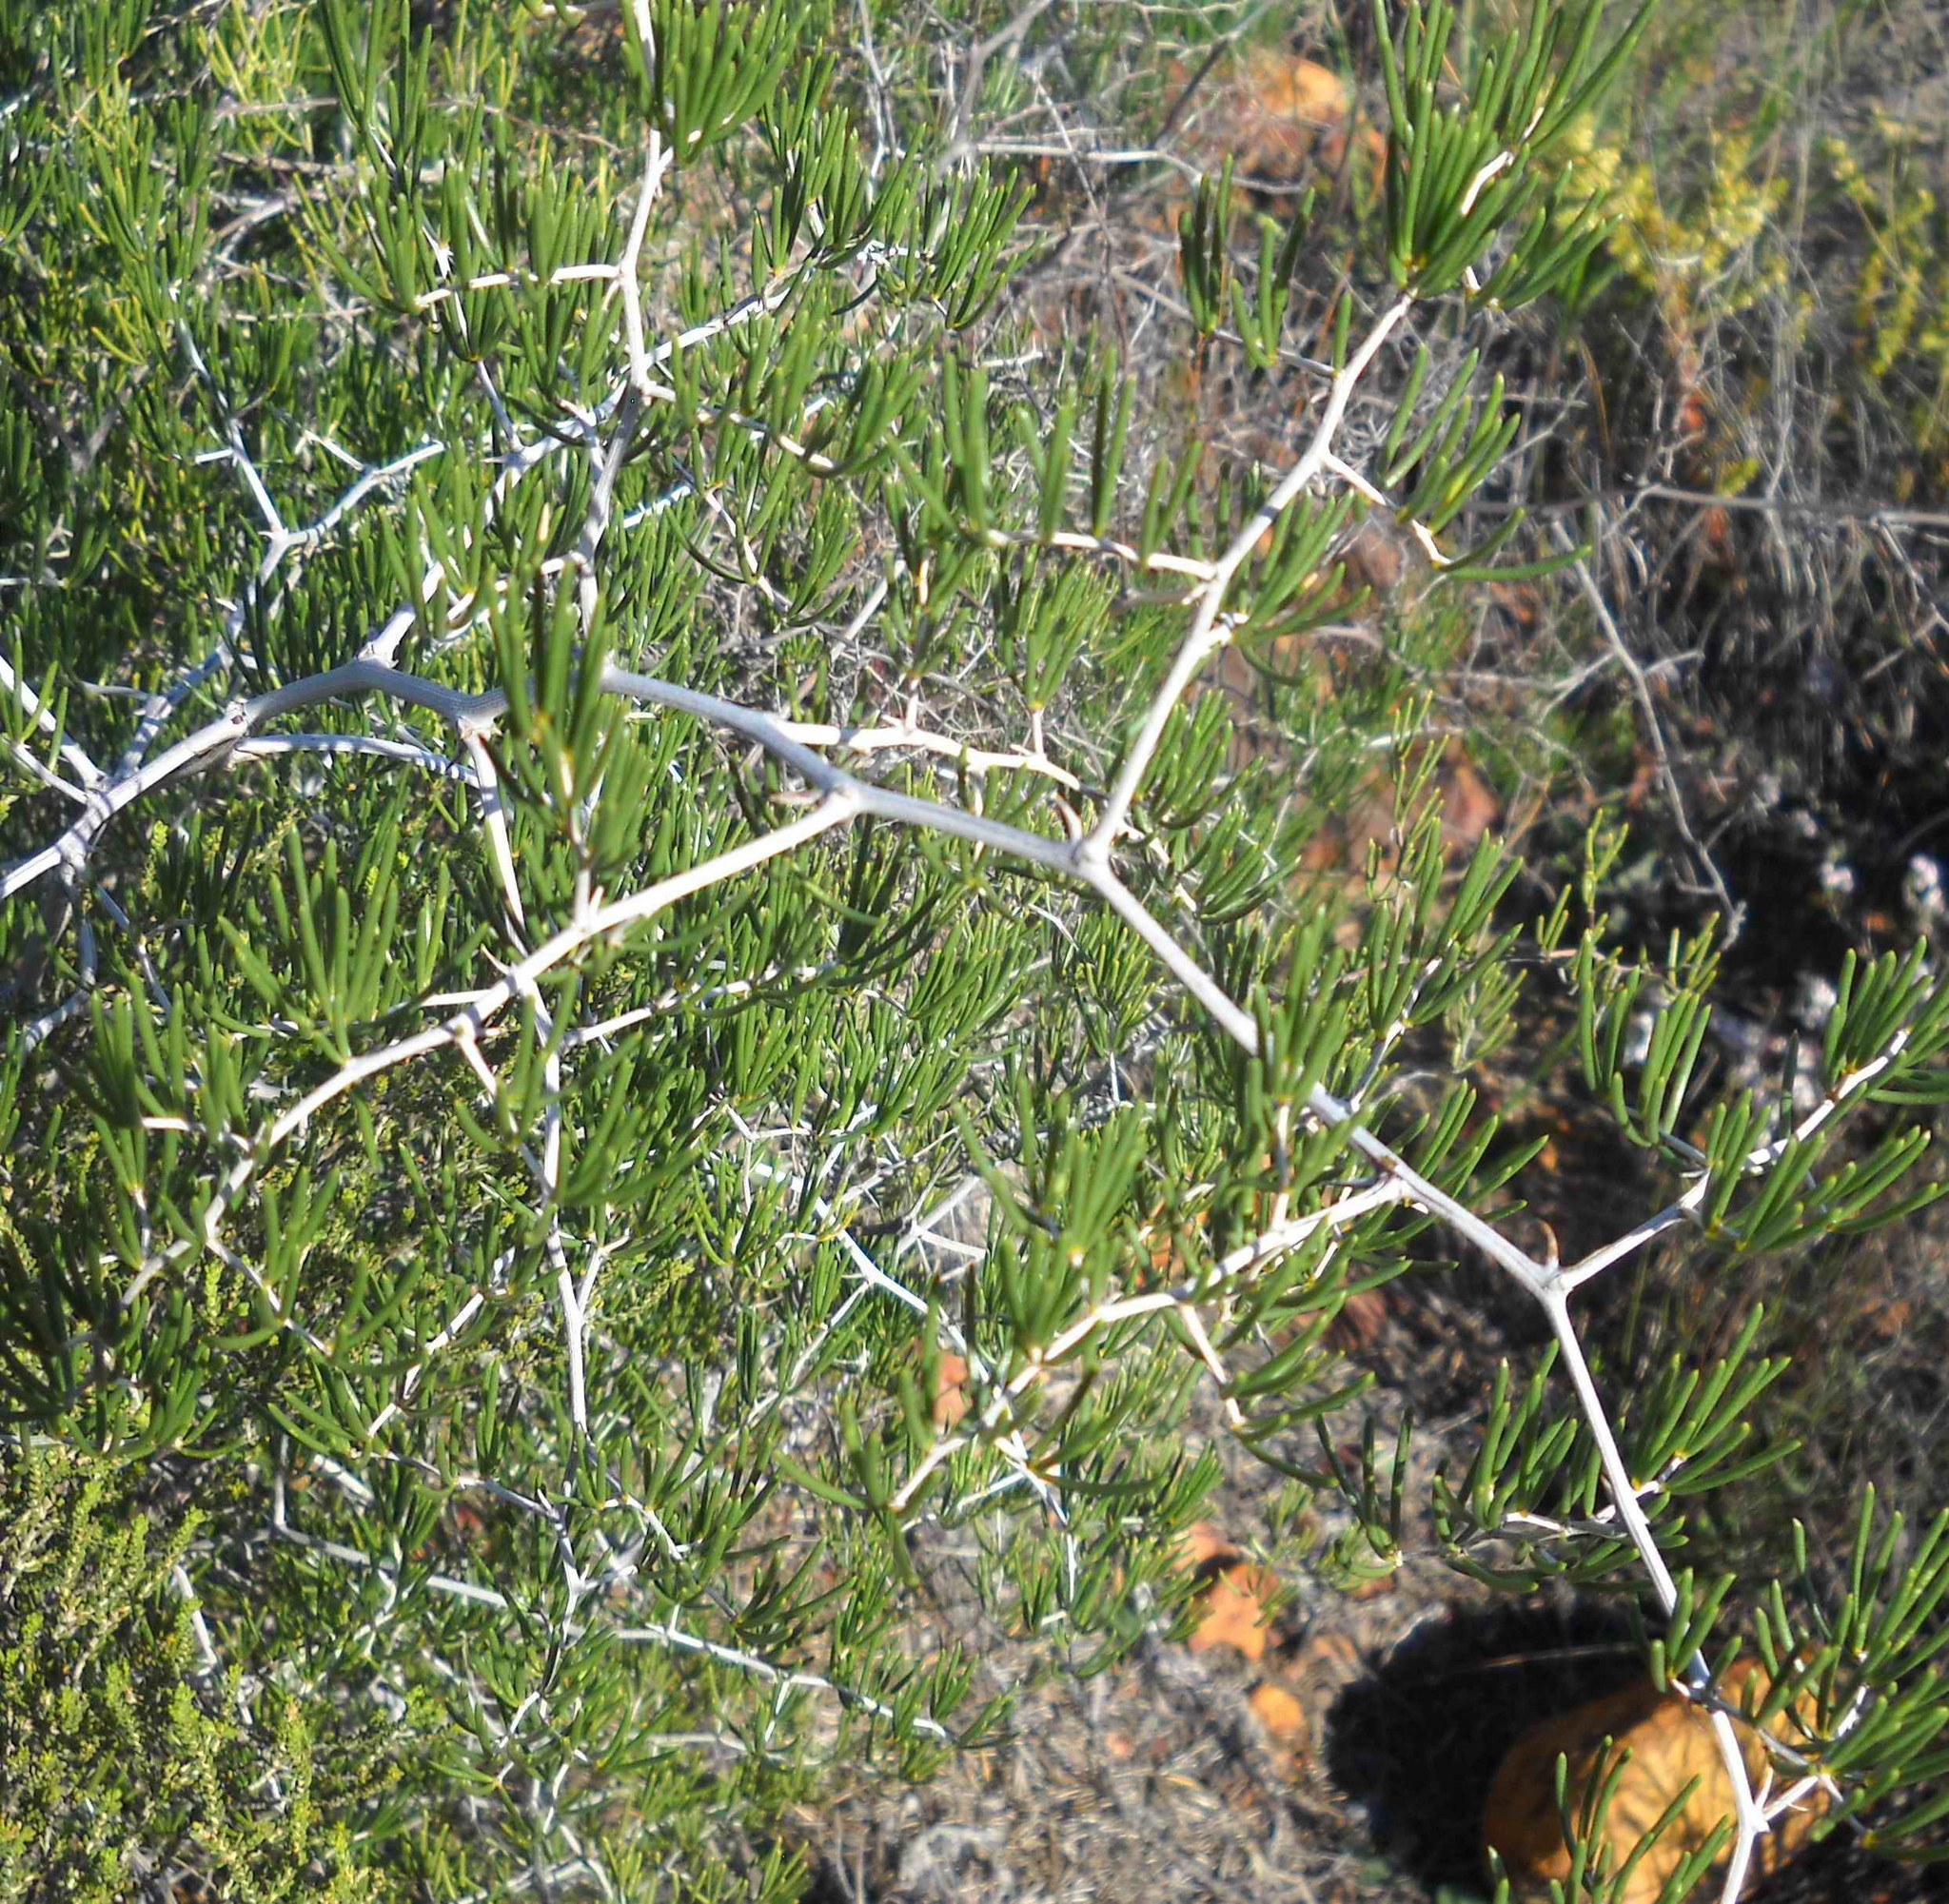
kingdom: Plantae
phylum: Tracheophyta
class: Liliopsida
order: Asparagales
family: Asparagaceae
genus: Asparagus
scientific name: Asparagus lignosus
